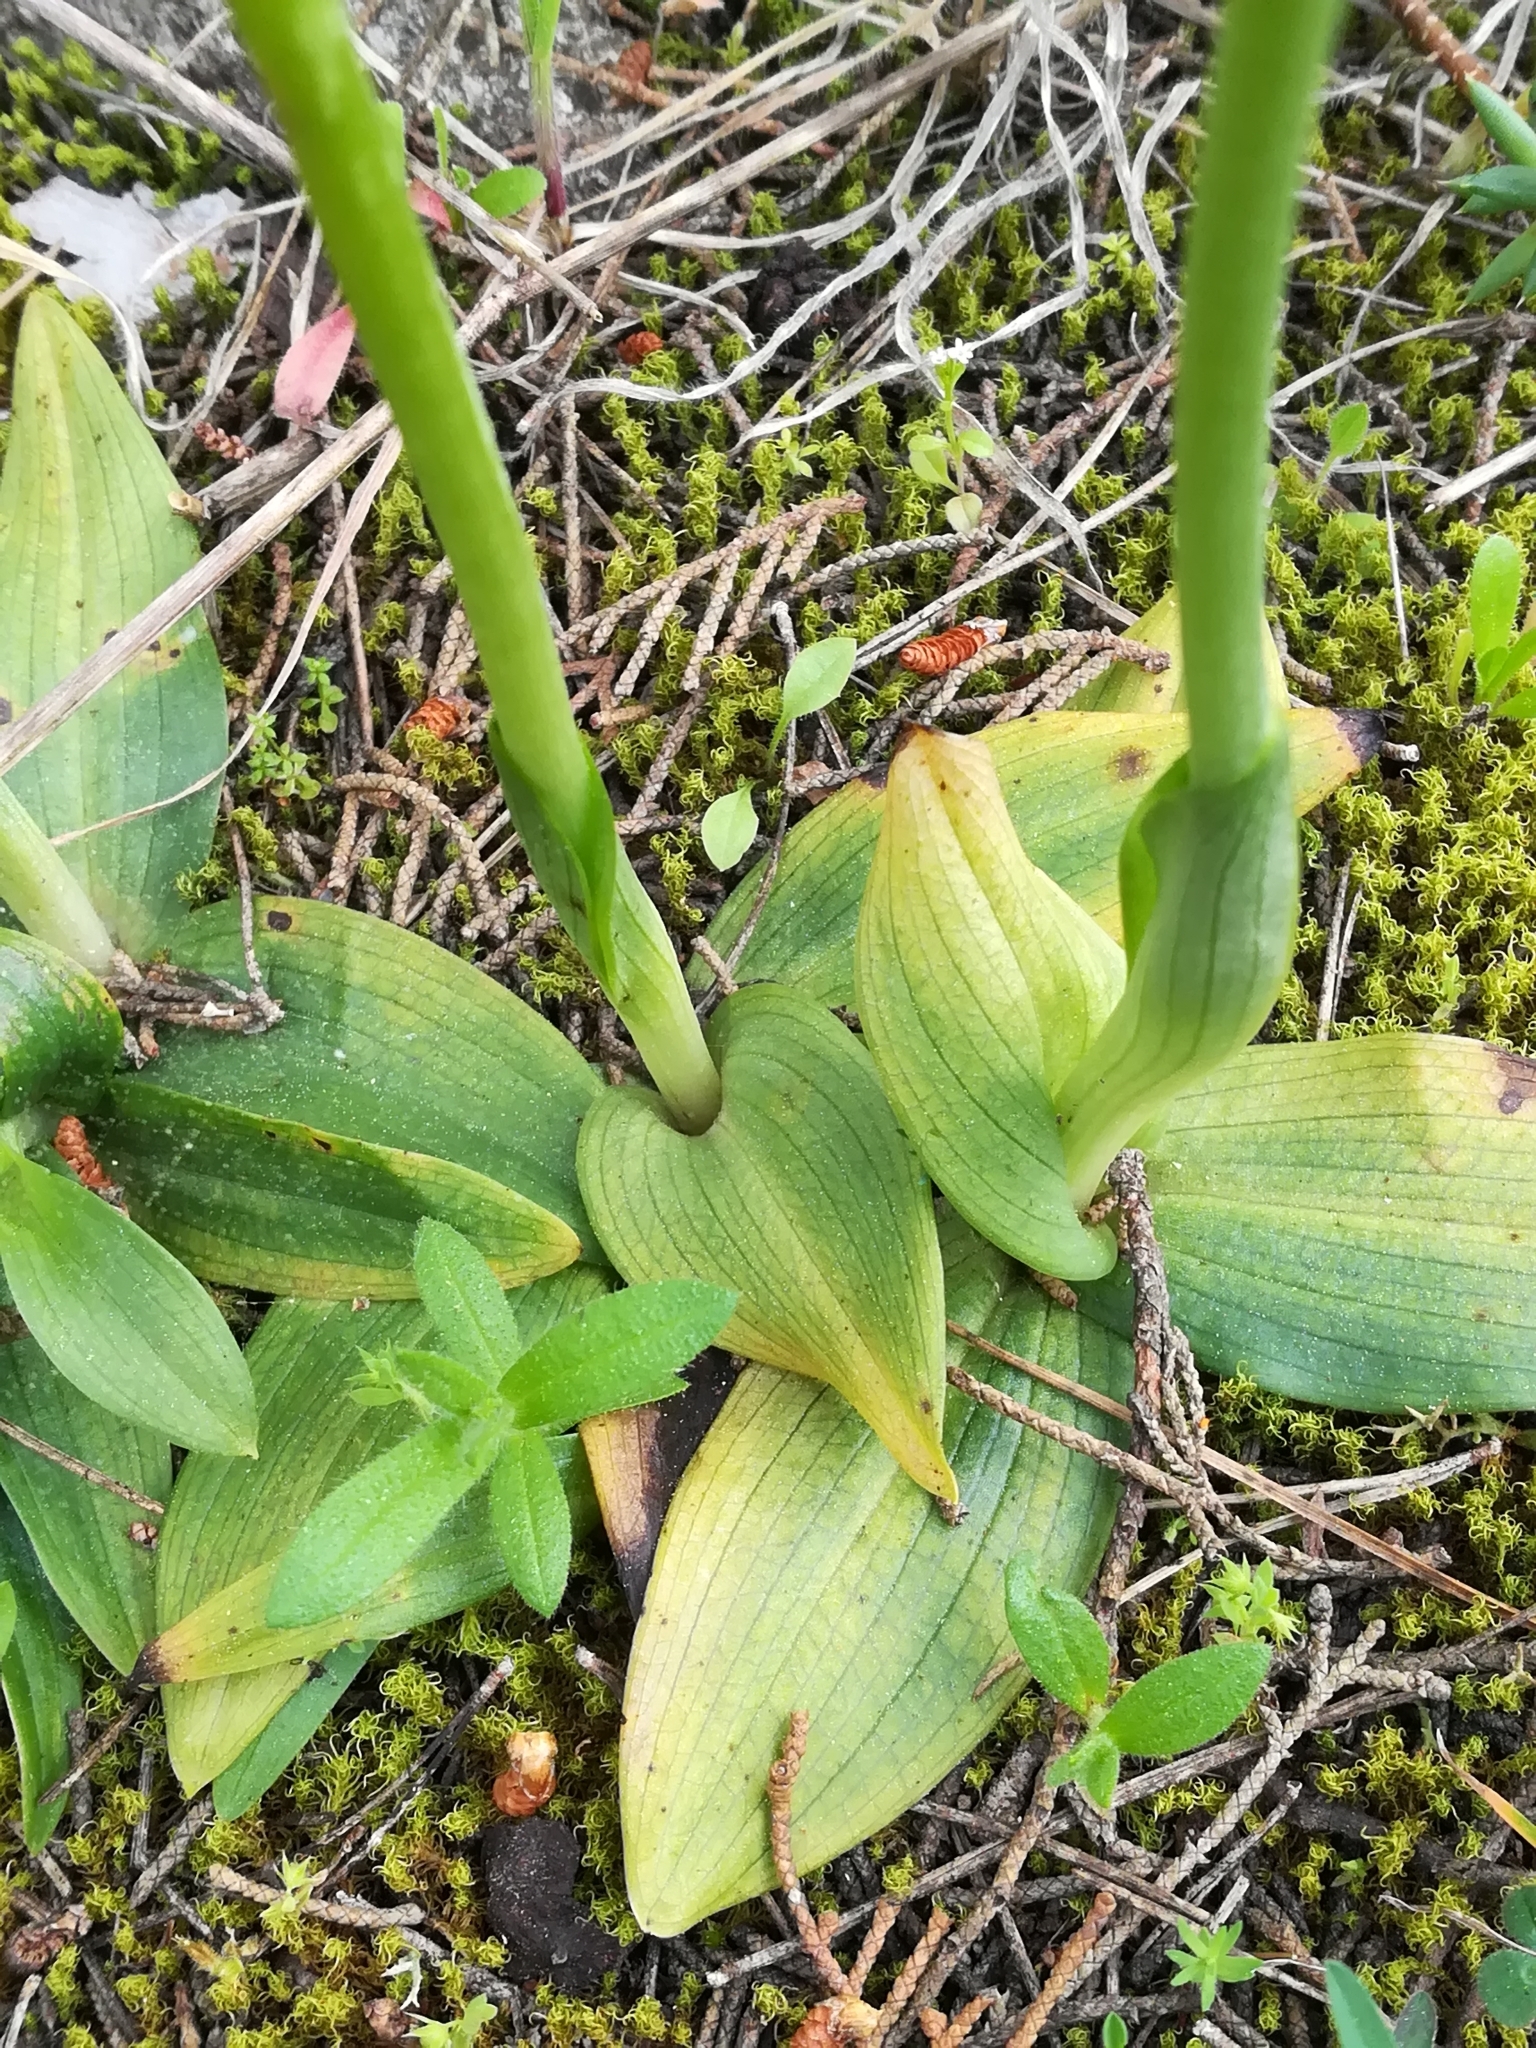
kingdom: Plantae
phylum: Tracheophyta
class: Liliopsida
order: Asparagales
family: Orchidaceae
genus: Ophrys
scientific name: Ophrys lutea
